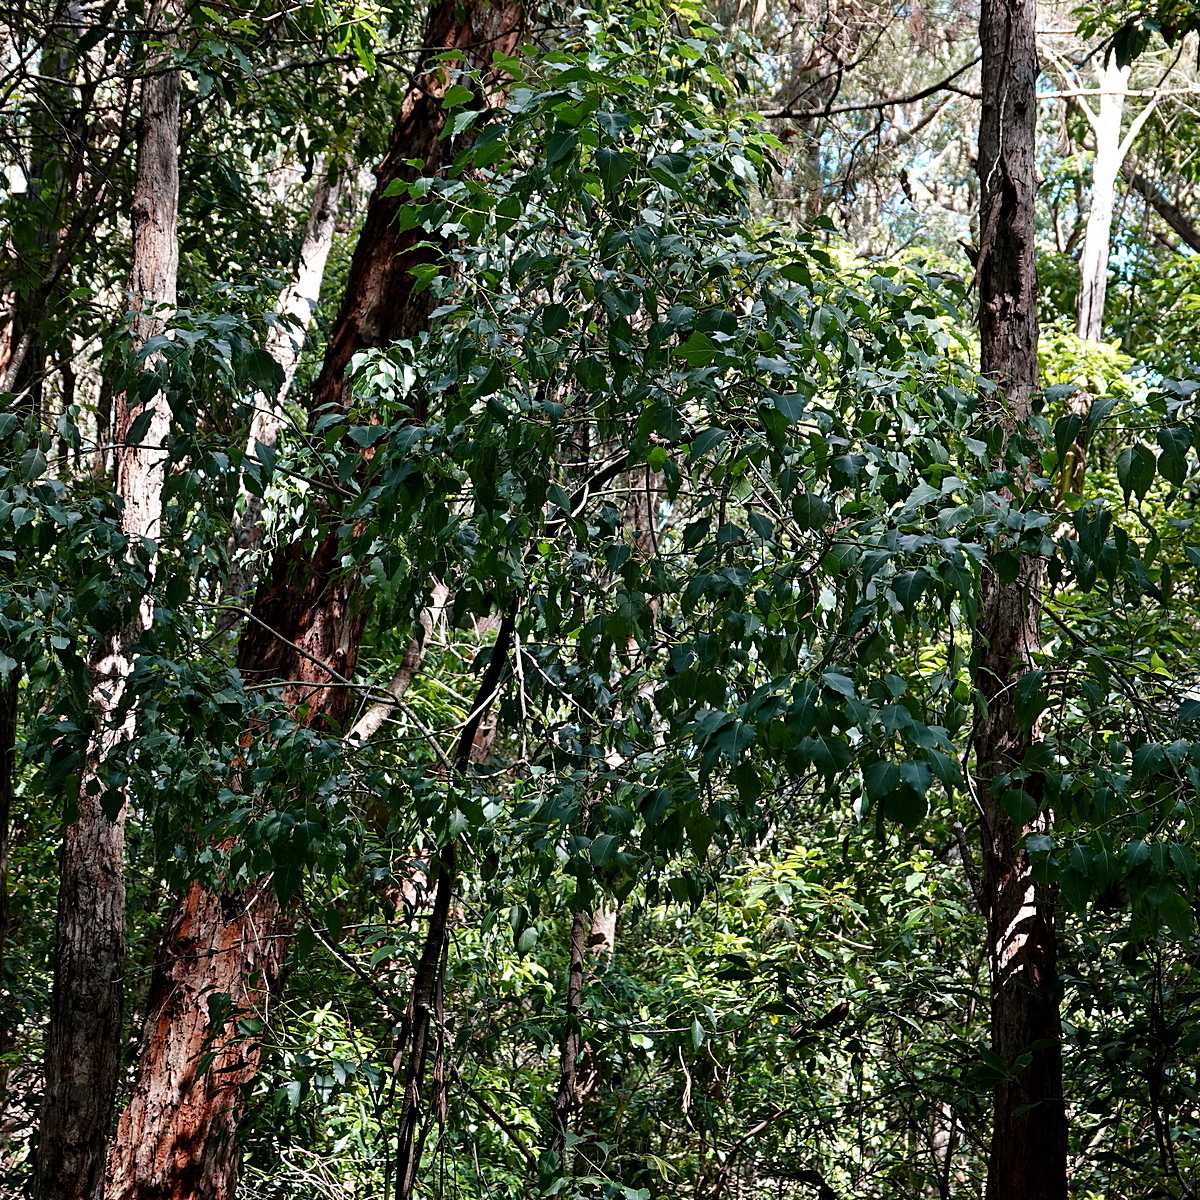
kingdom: Plantae
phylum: Tracheophyta
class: Magnoliopsida
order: Malvales
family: Malvaceae
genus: Brachychiton
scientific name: Brachychiton populneus
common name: Kurrajong
